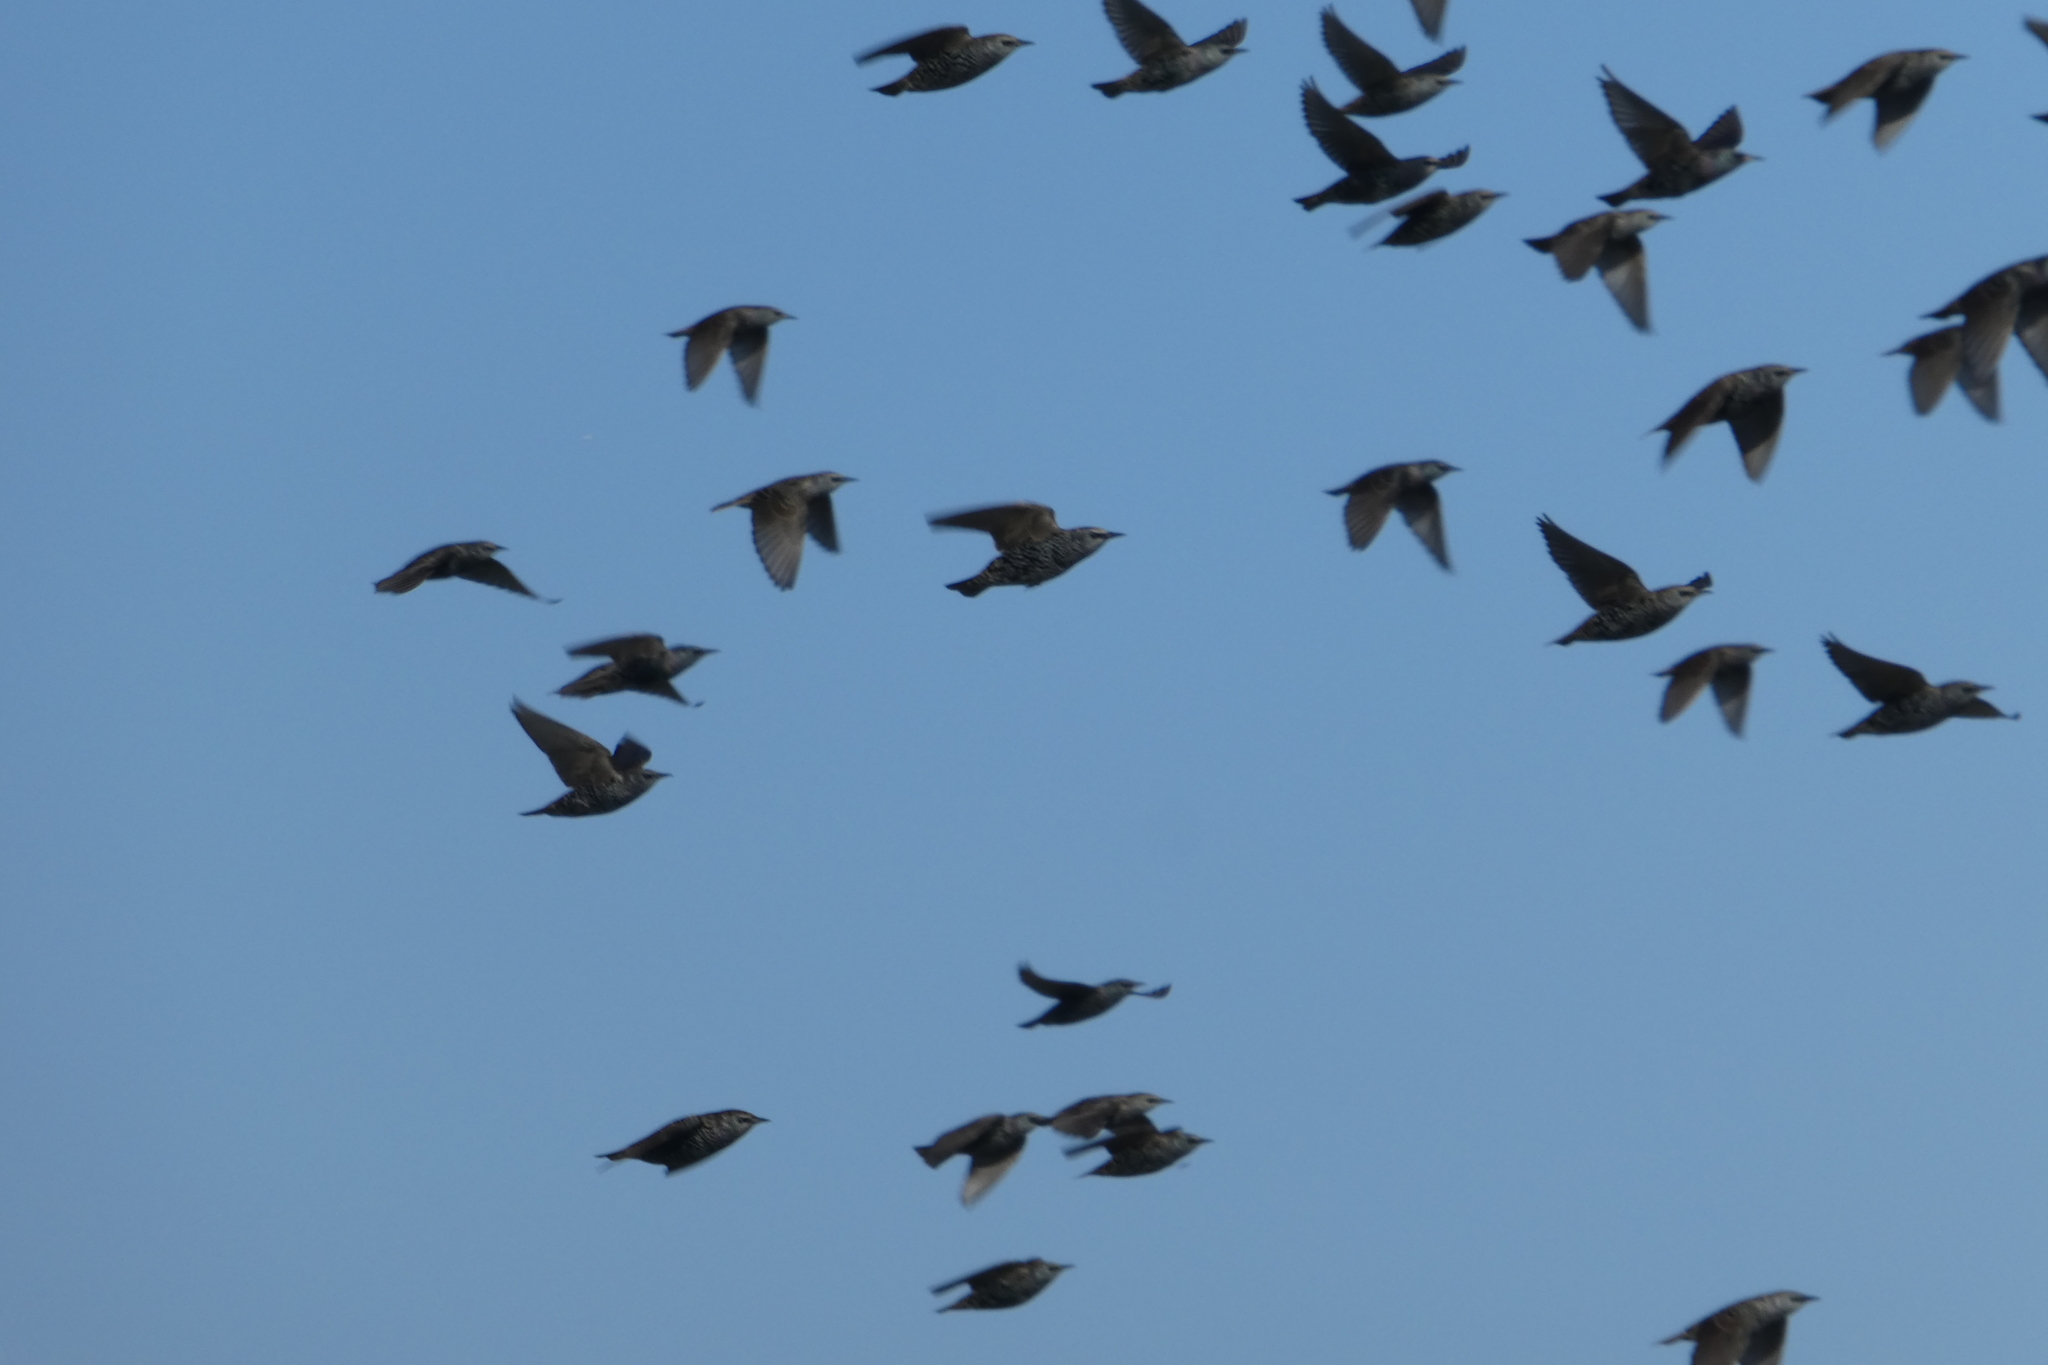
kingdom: Animalia
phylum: Chordata
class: Aves
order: Passeriformes
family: Sturnidae
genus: Sturnus
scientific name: Sturnus vulgaris
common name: Common starling
